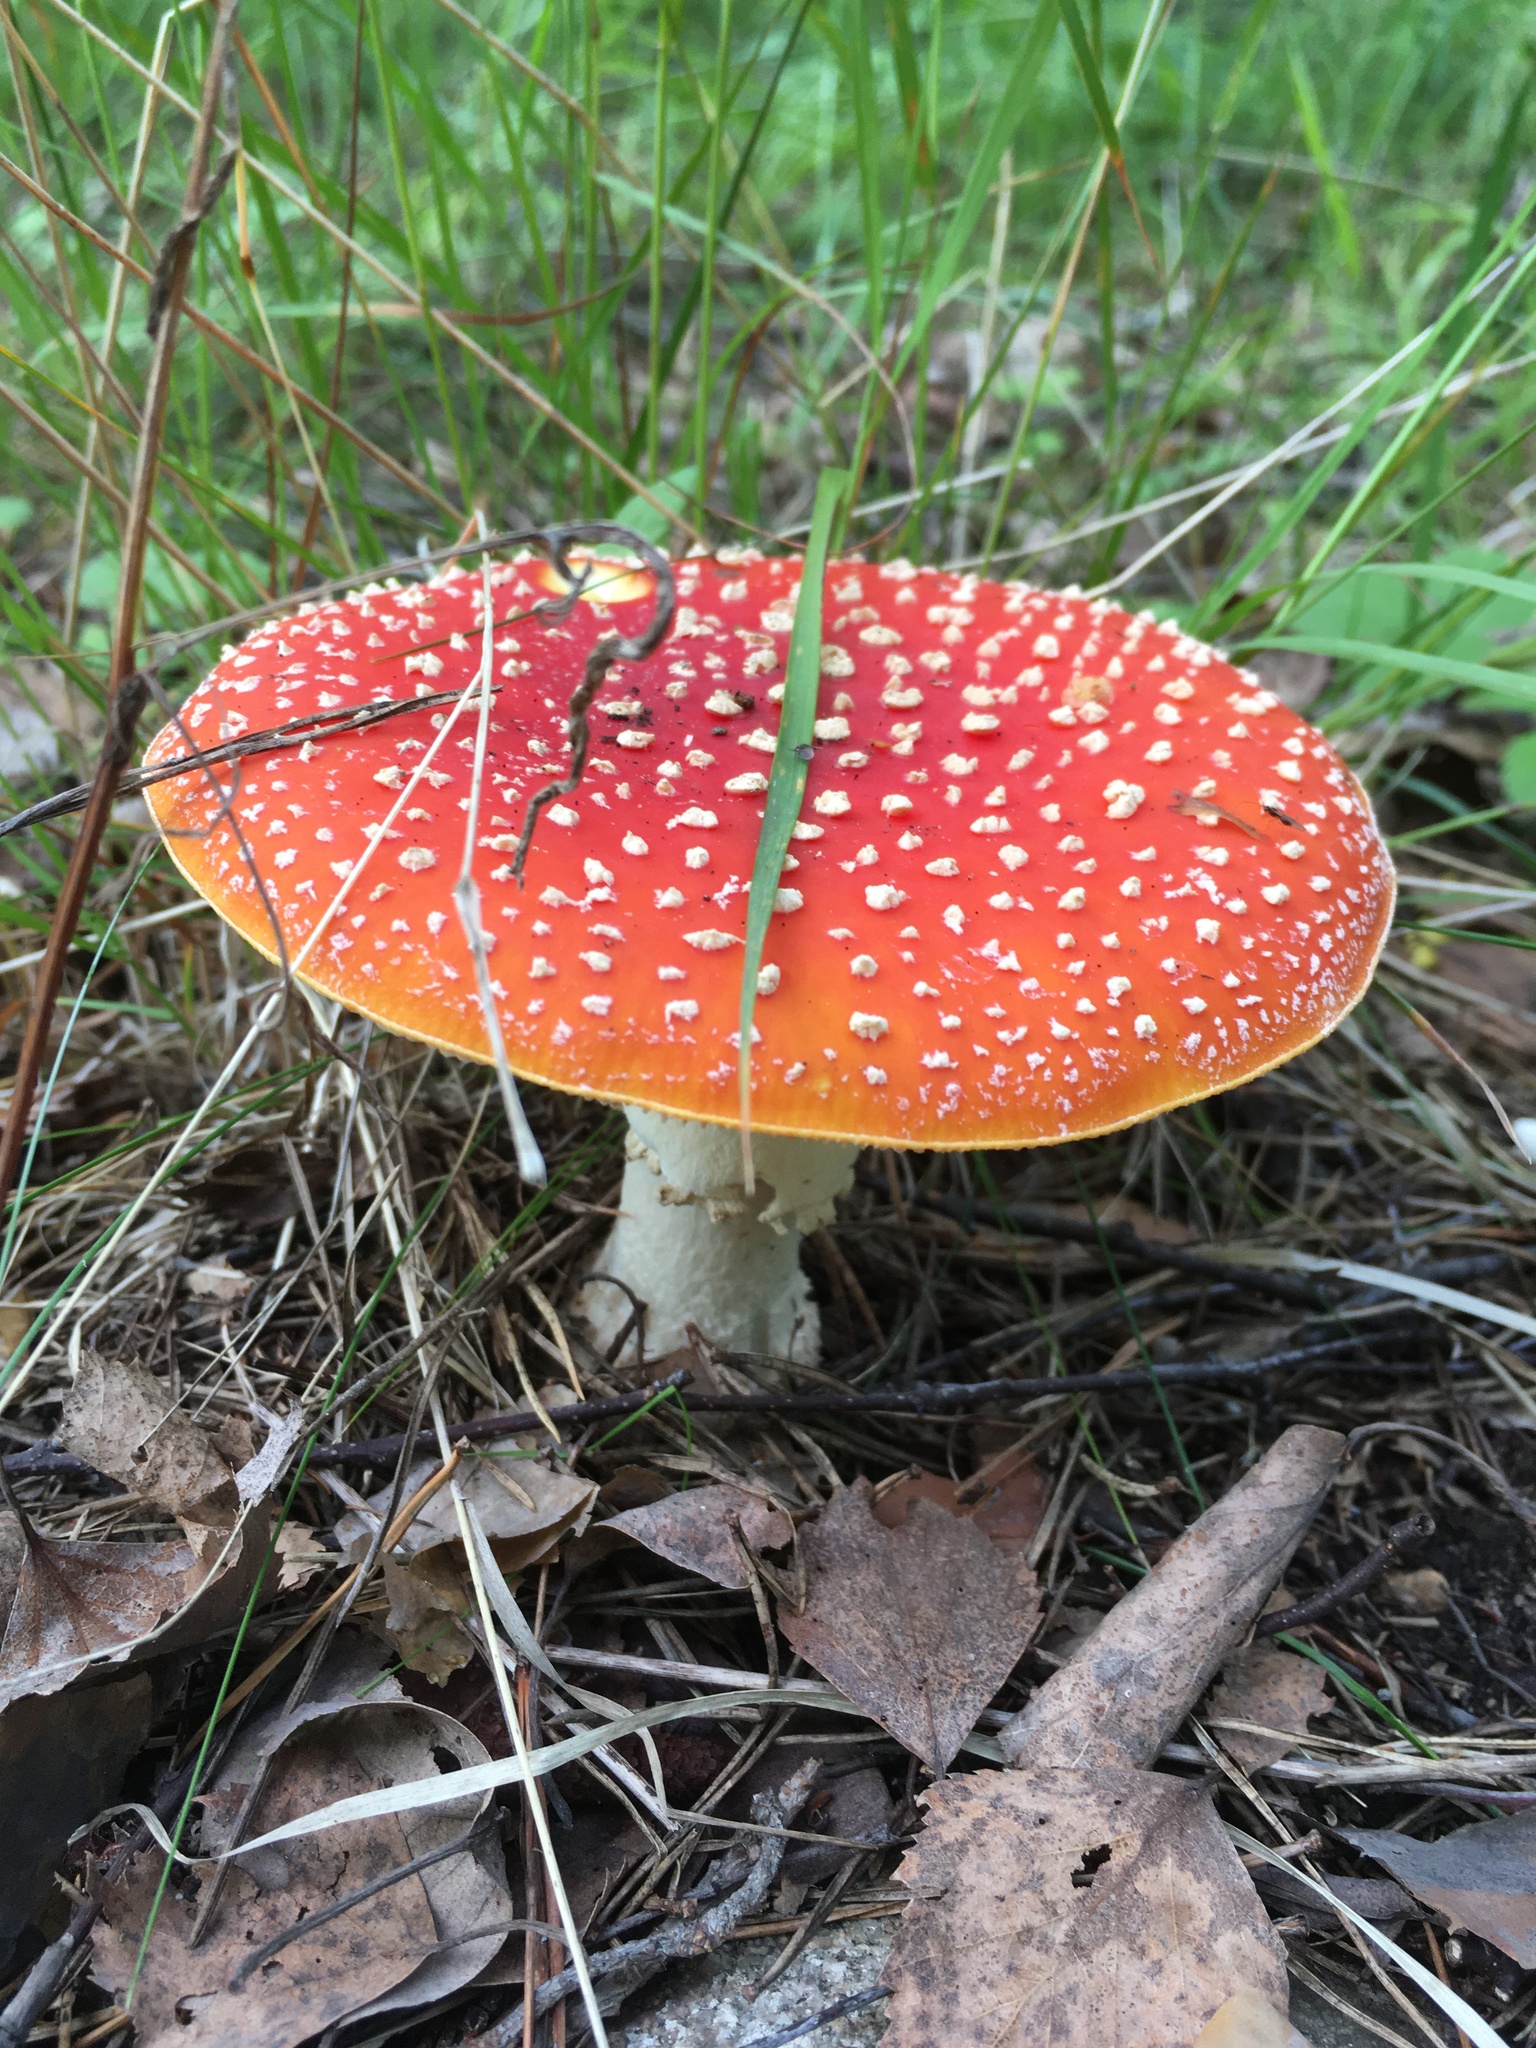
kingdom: Fungi
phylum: Basidiomycota
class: Agaricomycetes
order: Agaricales
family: Amanitaceae
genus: Amanita
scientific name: Amanita muscaria
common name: Fly agaric
